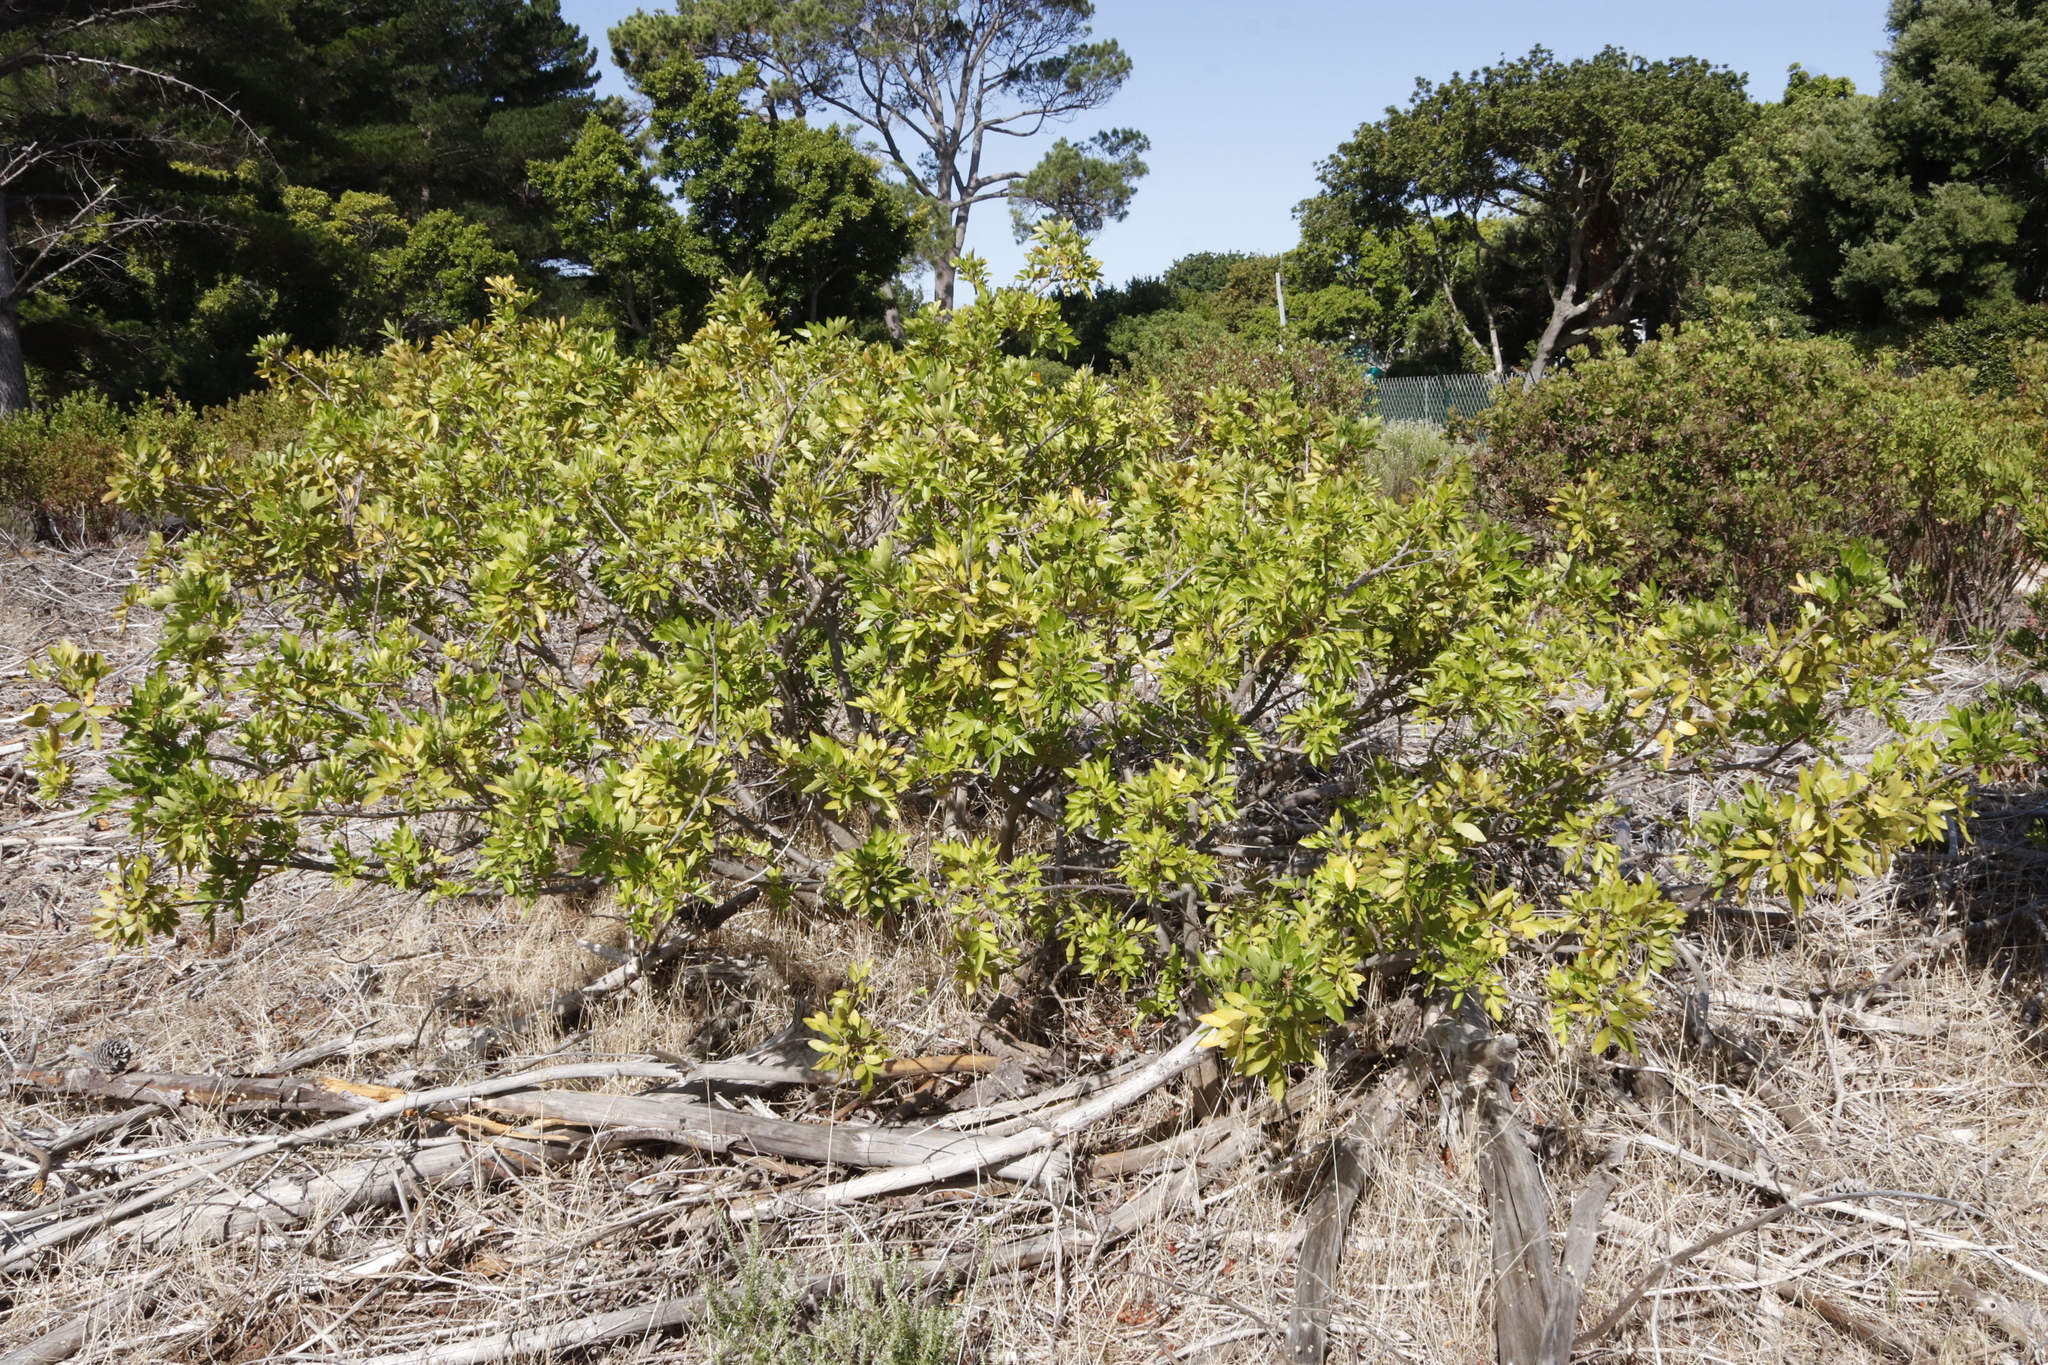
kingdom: Plantae
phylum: Tracheophyta
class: Magnoliopsida
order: Sapindales
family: Anacardiaceae
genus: Schinus
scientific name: Schinus terebinthifolia
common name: Brazilian peppertree
